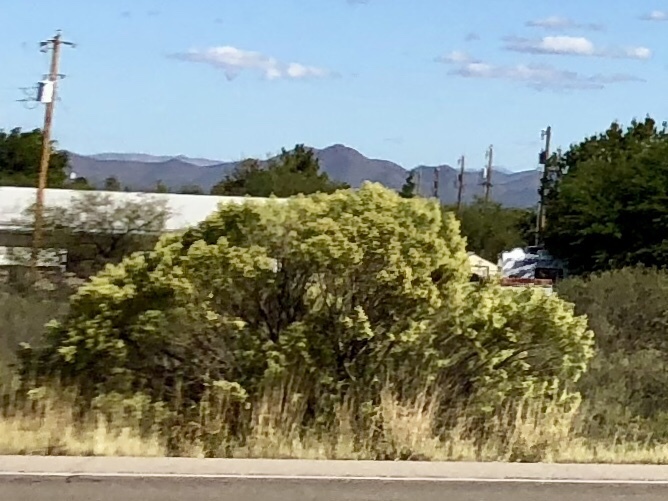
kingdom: Plantae
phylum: Tracheophyta
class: Magnoliopsida
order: Asterales
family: Asteraceae
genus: Baccharis
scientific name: Baccharis sarothroides
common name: Desert-broom
